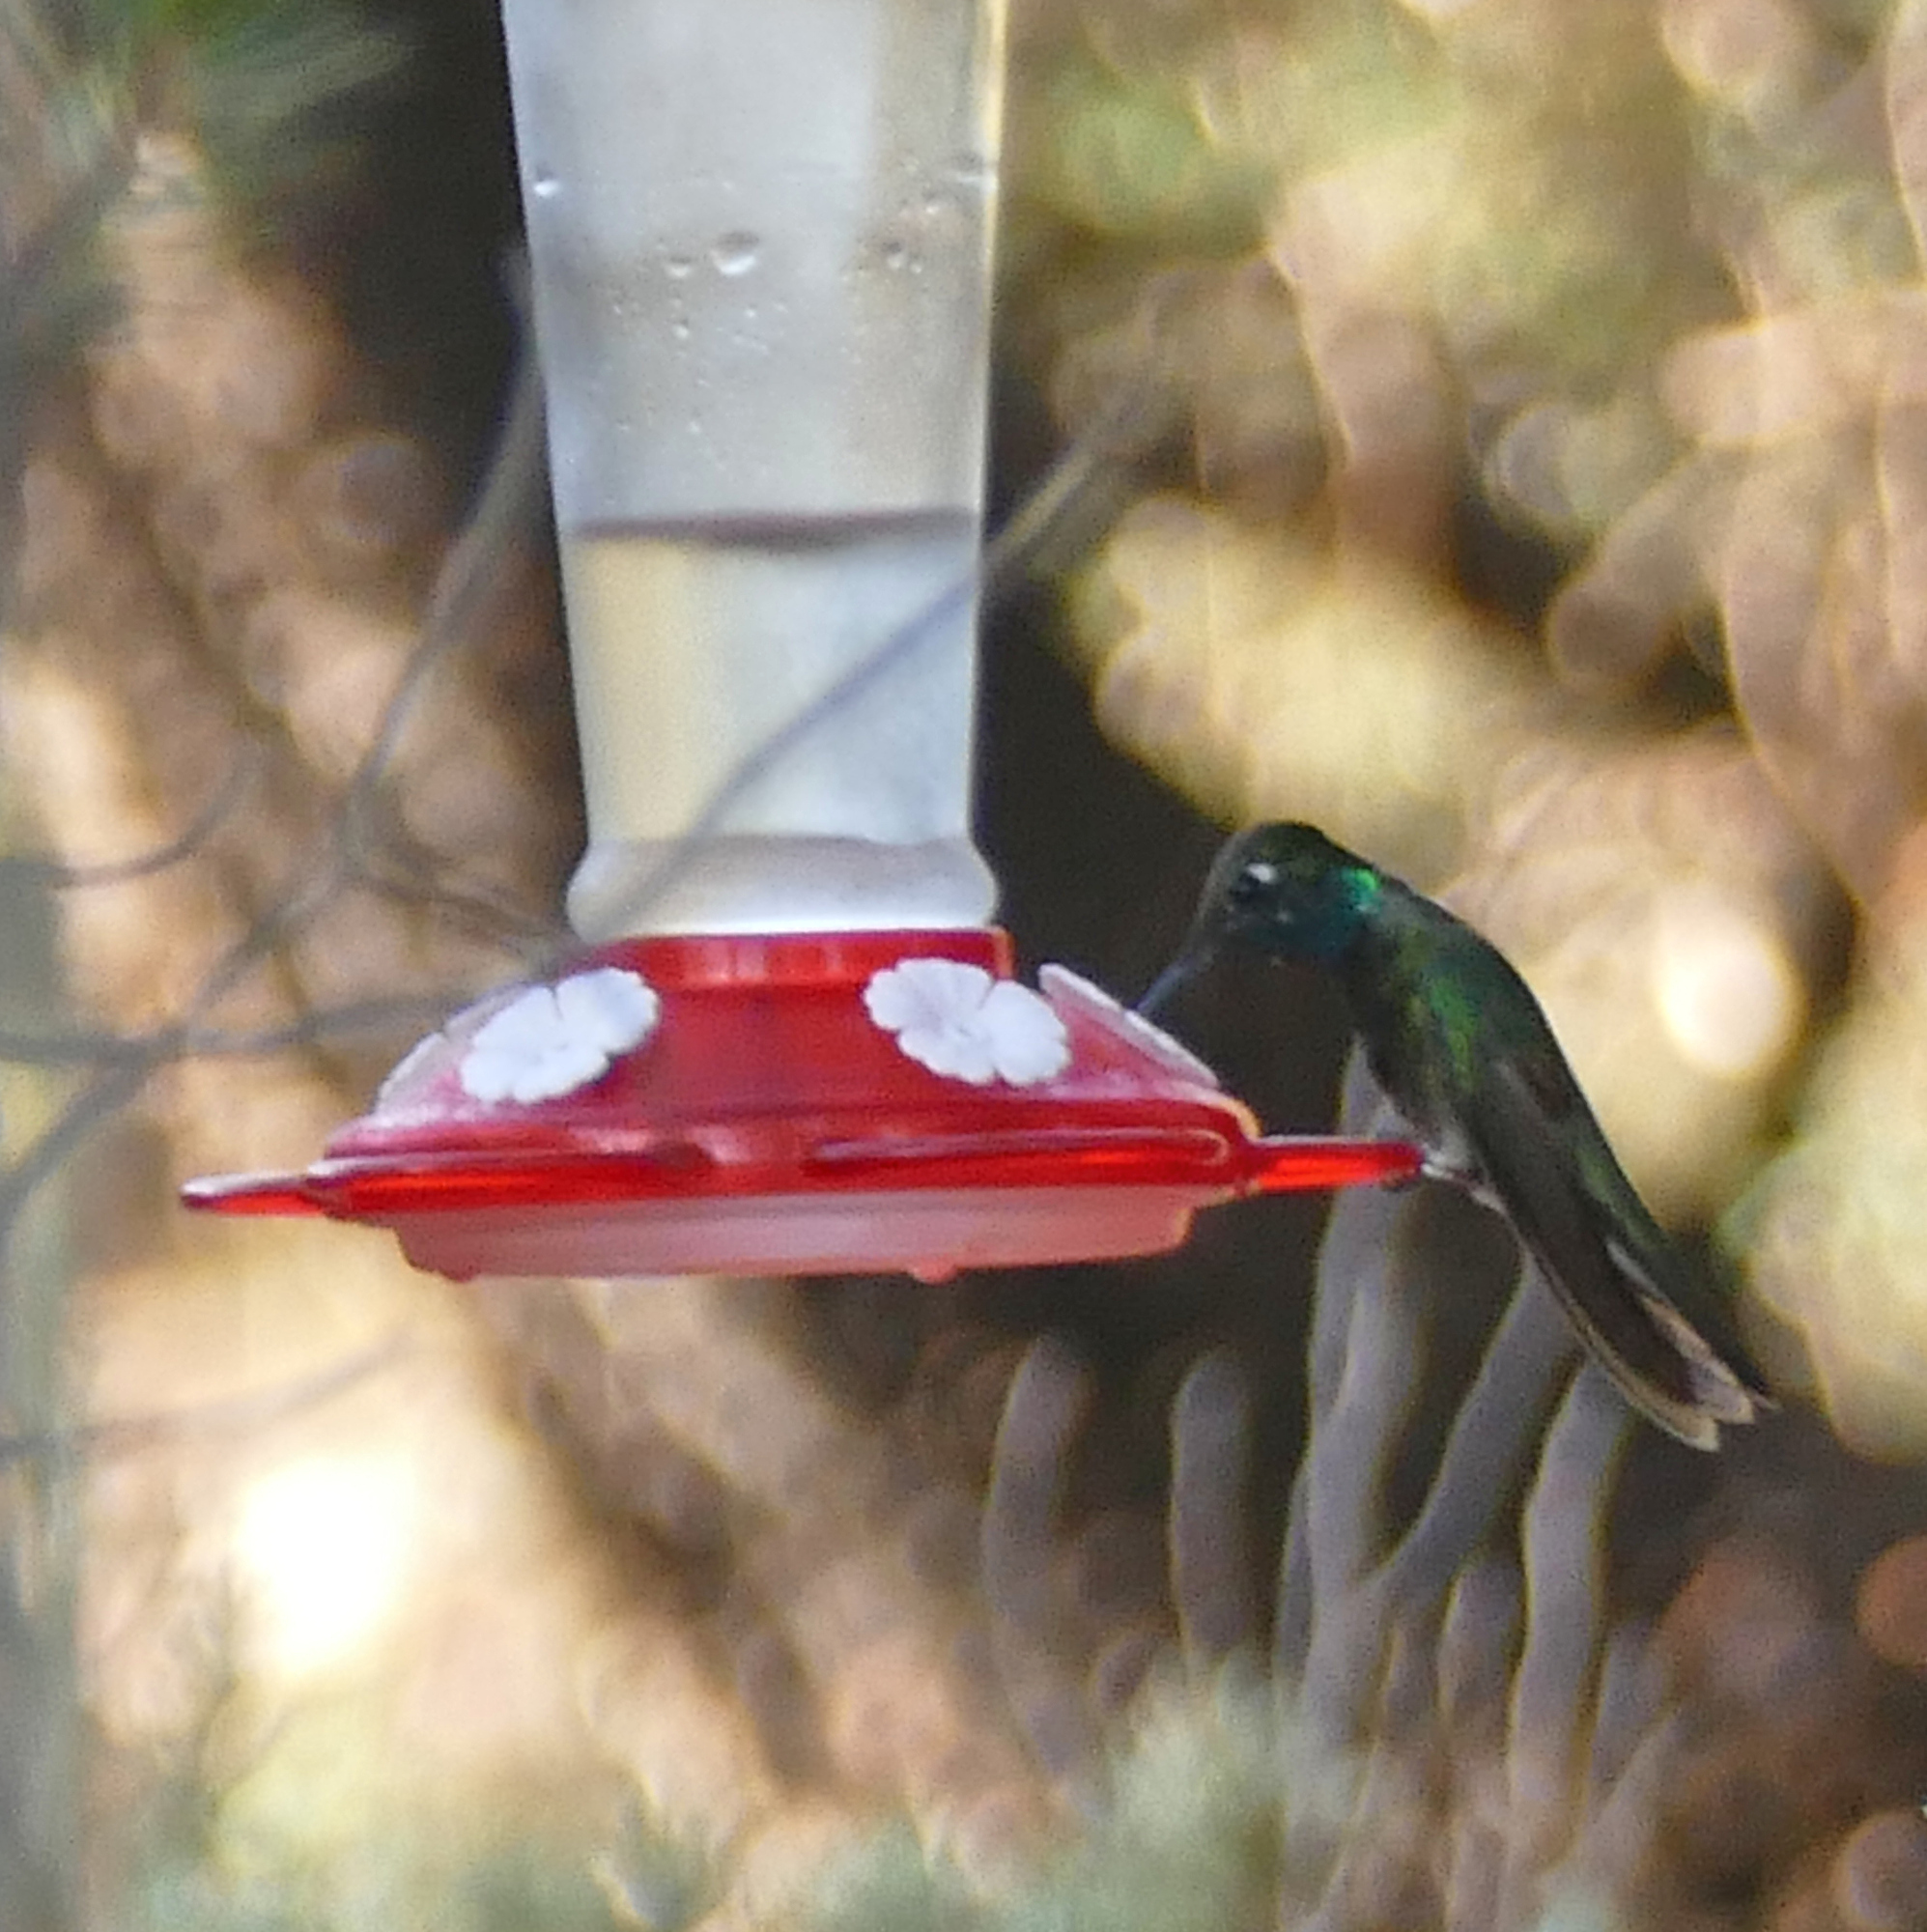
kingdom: Animalia
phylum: Chordata
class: Aves
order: Apodiformes
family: Trochilidae
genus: Eugenes
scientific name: Eugenes fulgens
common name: Magnificent hummingbird
